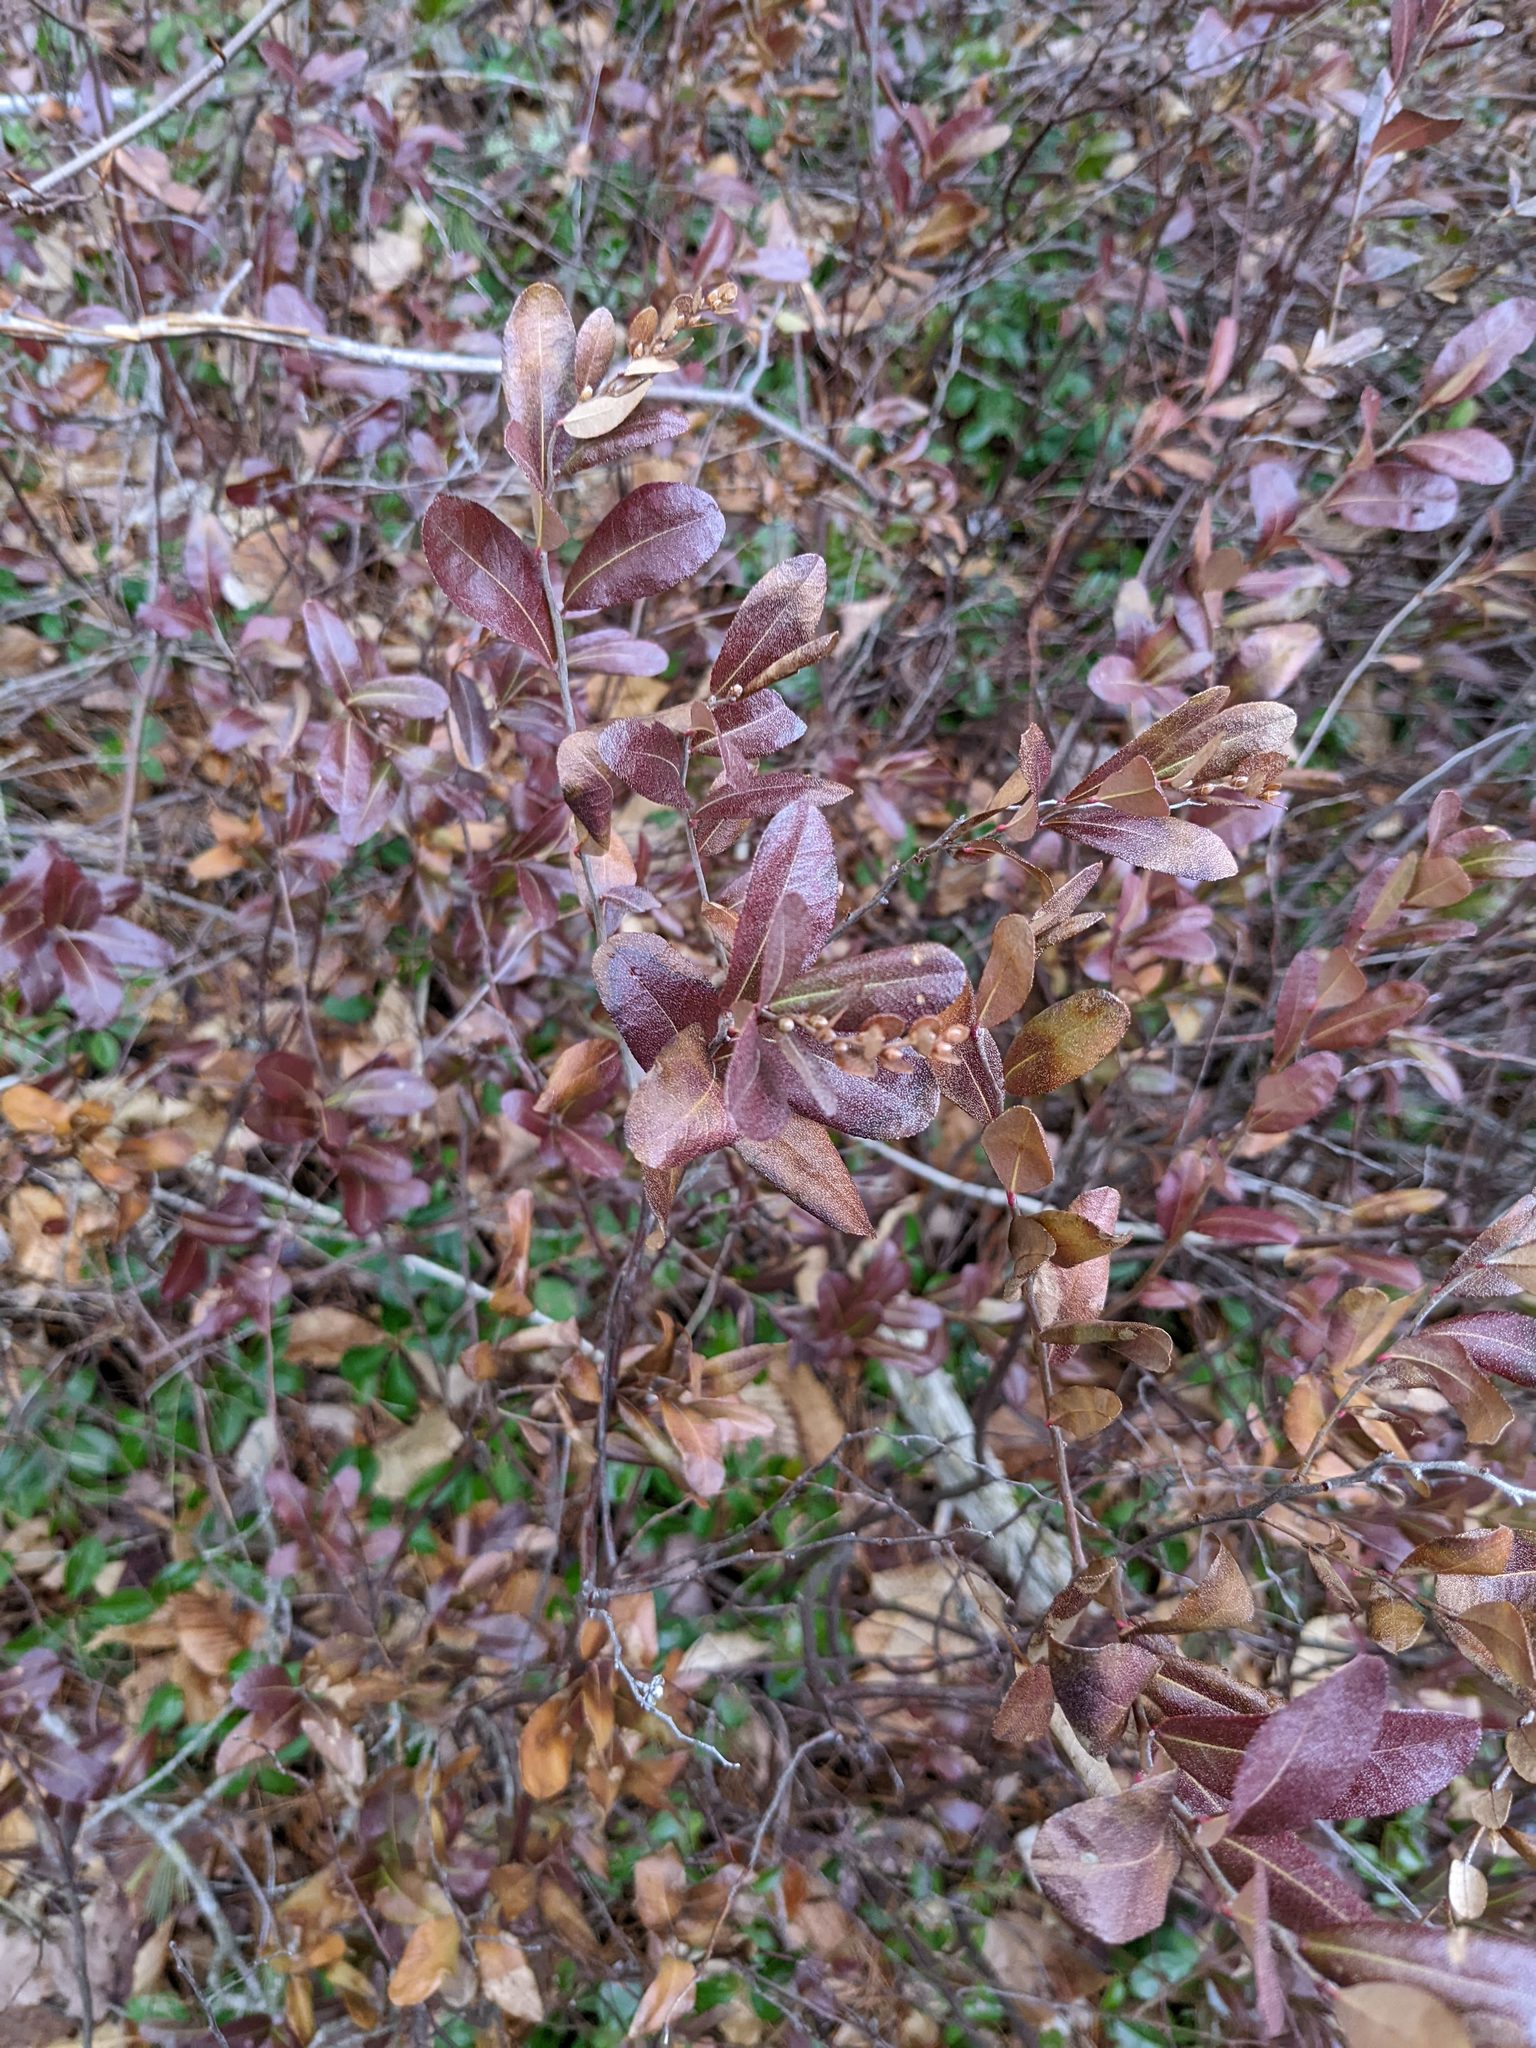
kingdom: Plantae
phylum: Tracheophyta
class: Magnoliopsida
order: Ericales
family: Ericaceae
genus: Chamaedaphne
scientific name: Chamaedaphne calyculata
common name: Leatherleaf
